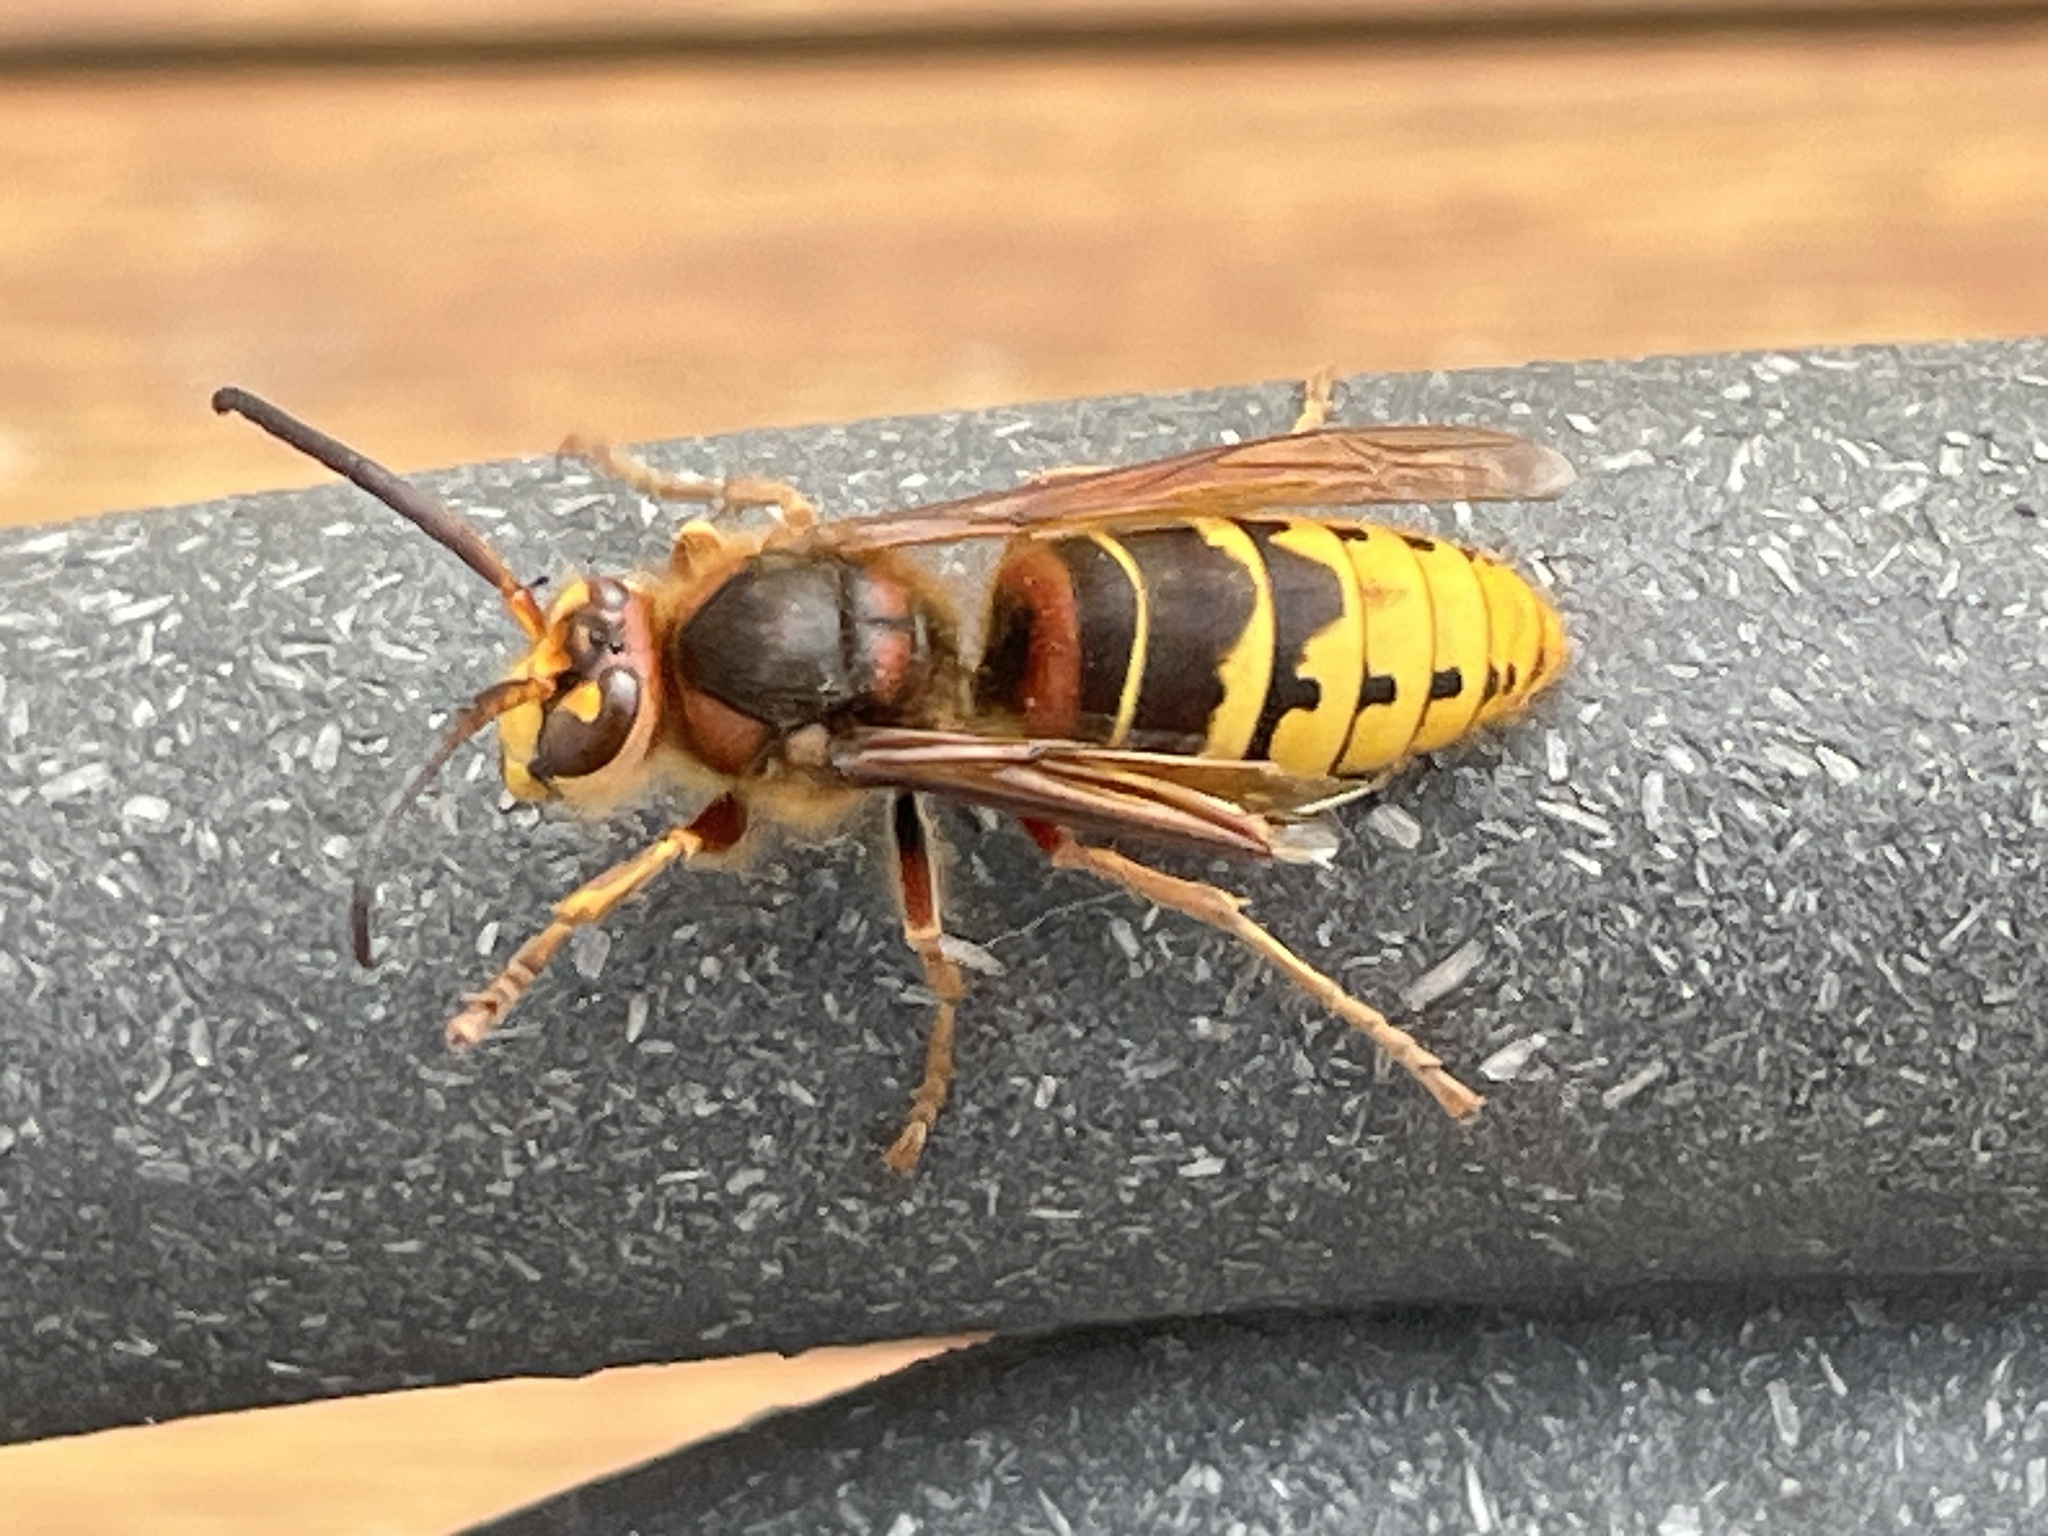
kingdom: Animalia
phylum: Arthropoda
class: Insecta
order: Hymenoptera
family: Vespidae
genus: Vespa
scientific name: Vespa crabro
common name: Hornet
